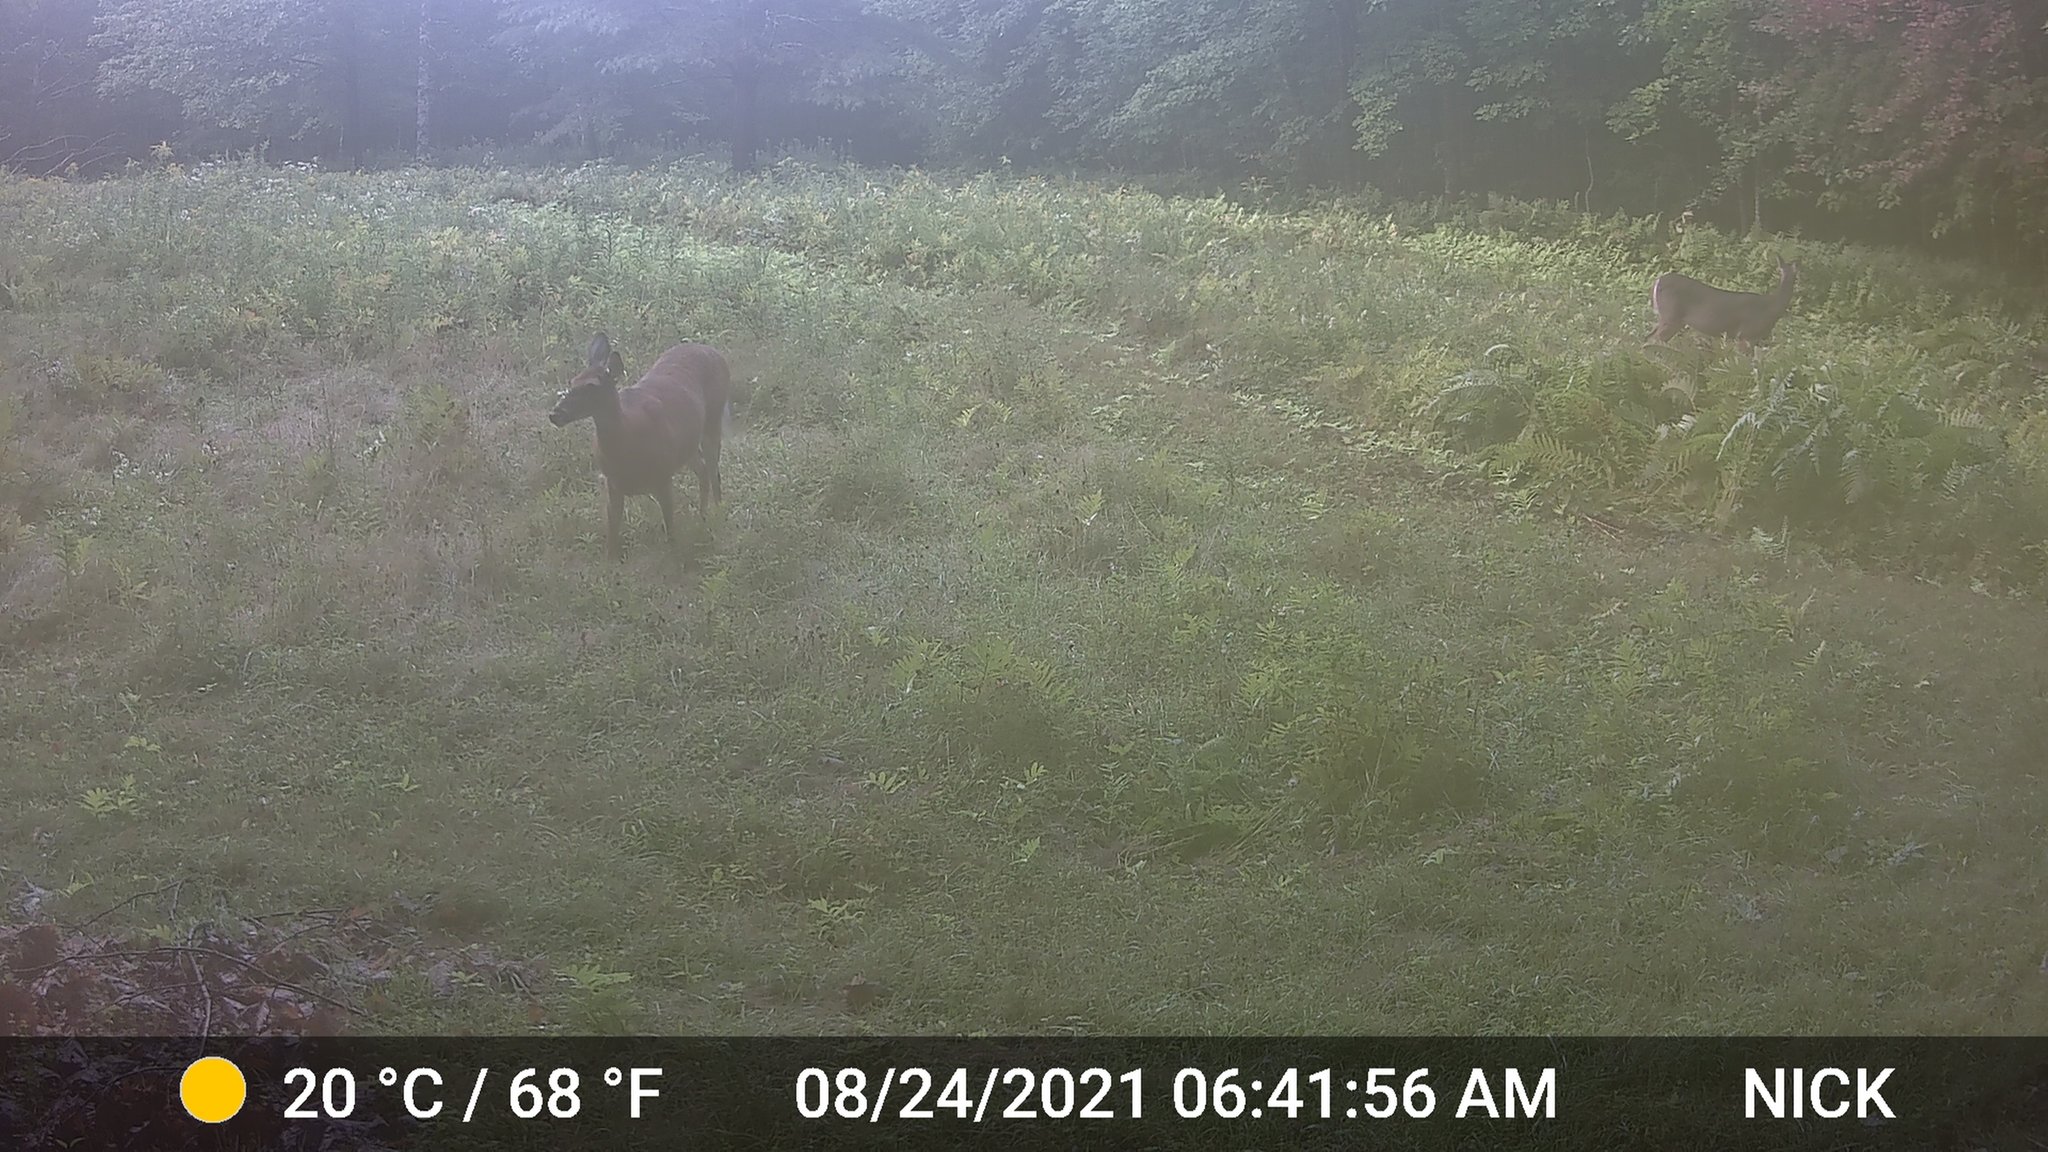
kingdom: Animalia
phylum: Chordata
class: Mammalia
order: Artiodactyla
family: Cervidae
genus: Odocoileus
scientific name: Odocoileus virginianus
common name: White-tailed deer
